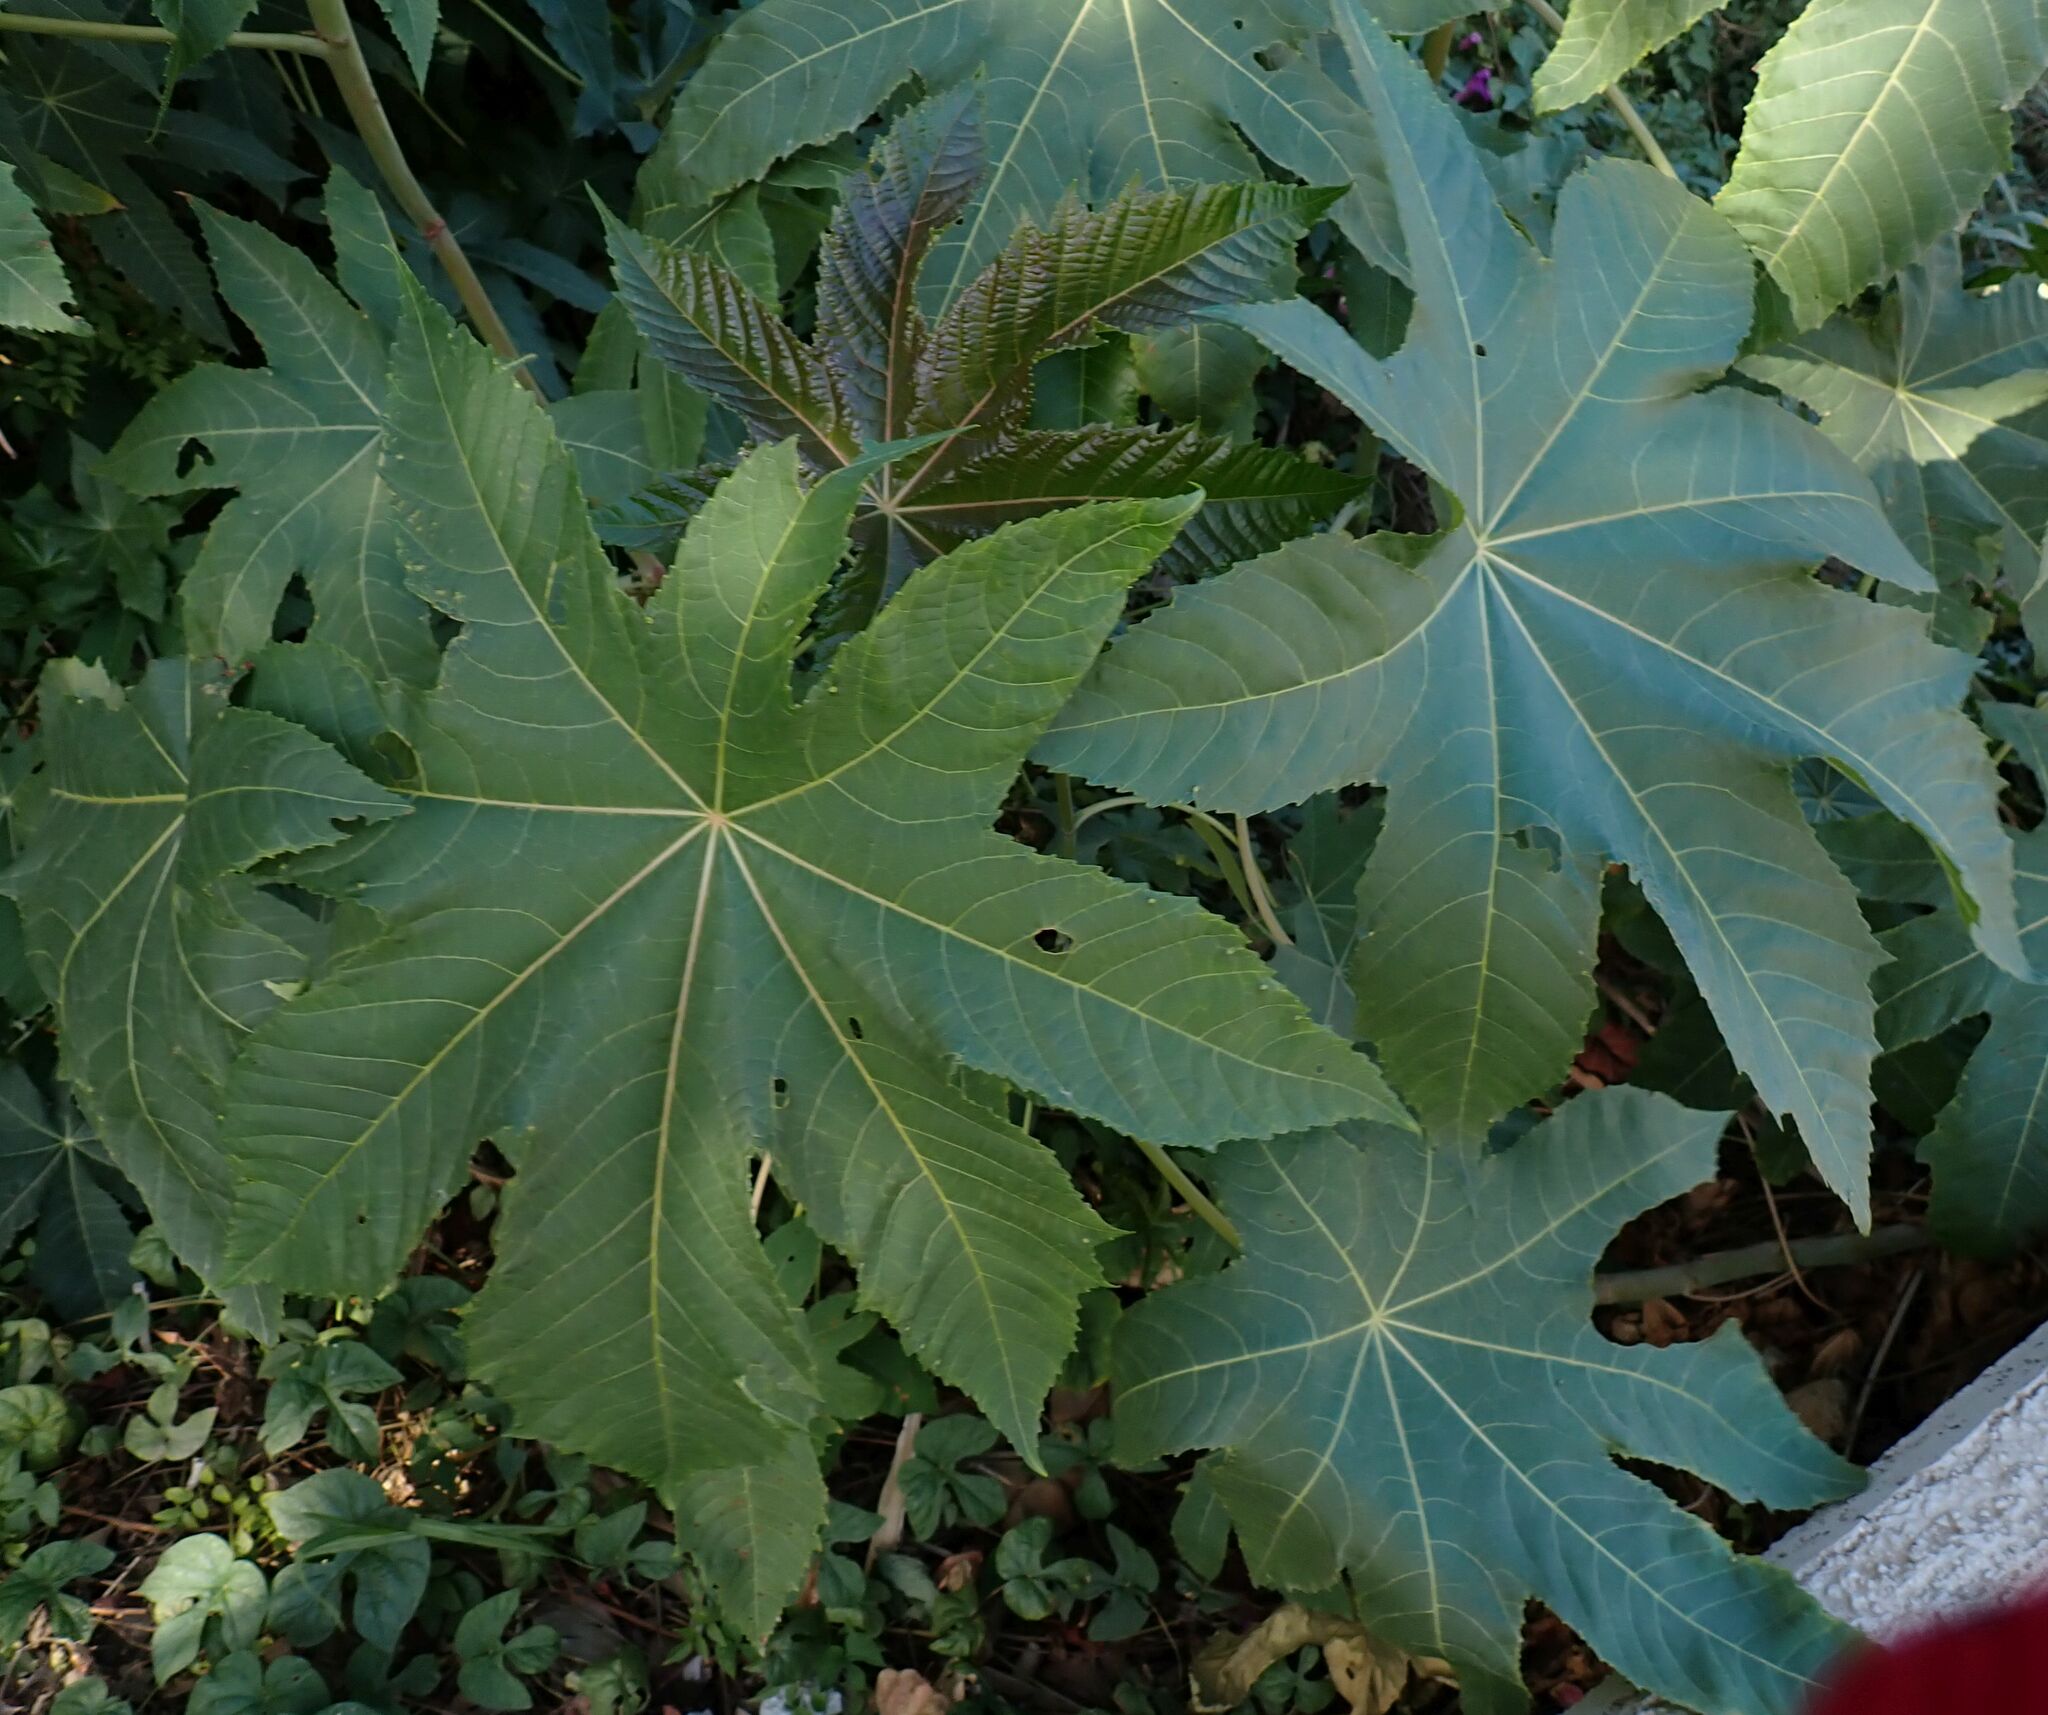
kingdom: Plantae
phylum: Tracheophyta
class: Magnoliopsida
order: Malpighiales
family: Euphorbiaceae
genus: Ricinus
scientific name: Ricinus communis
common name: Castor-oil-plant
